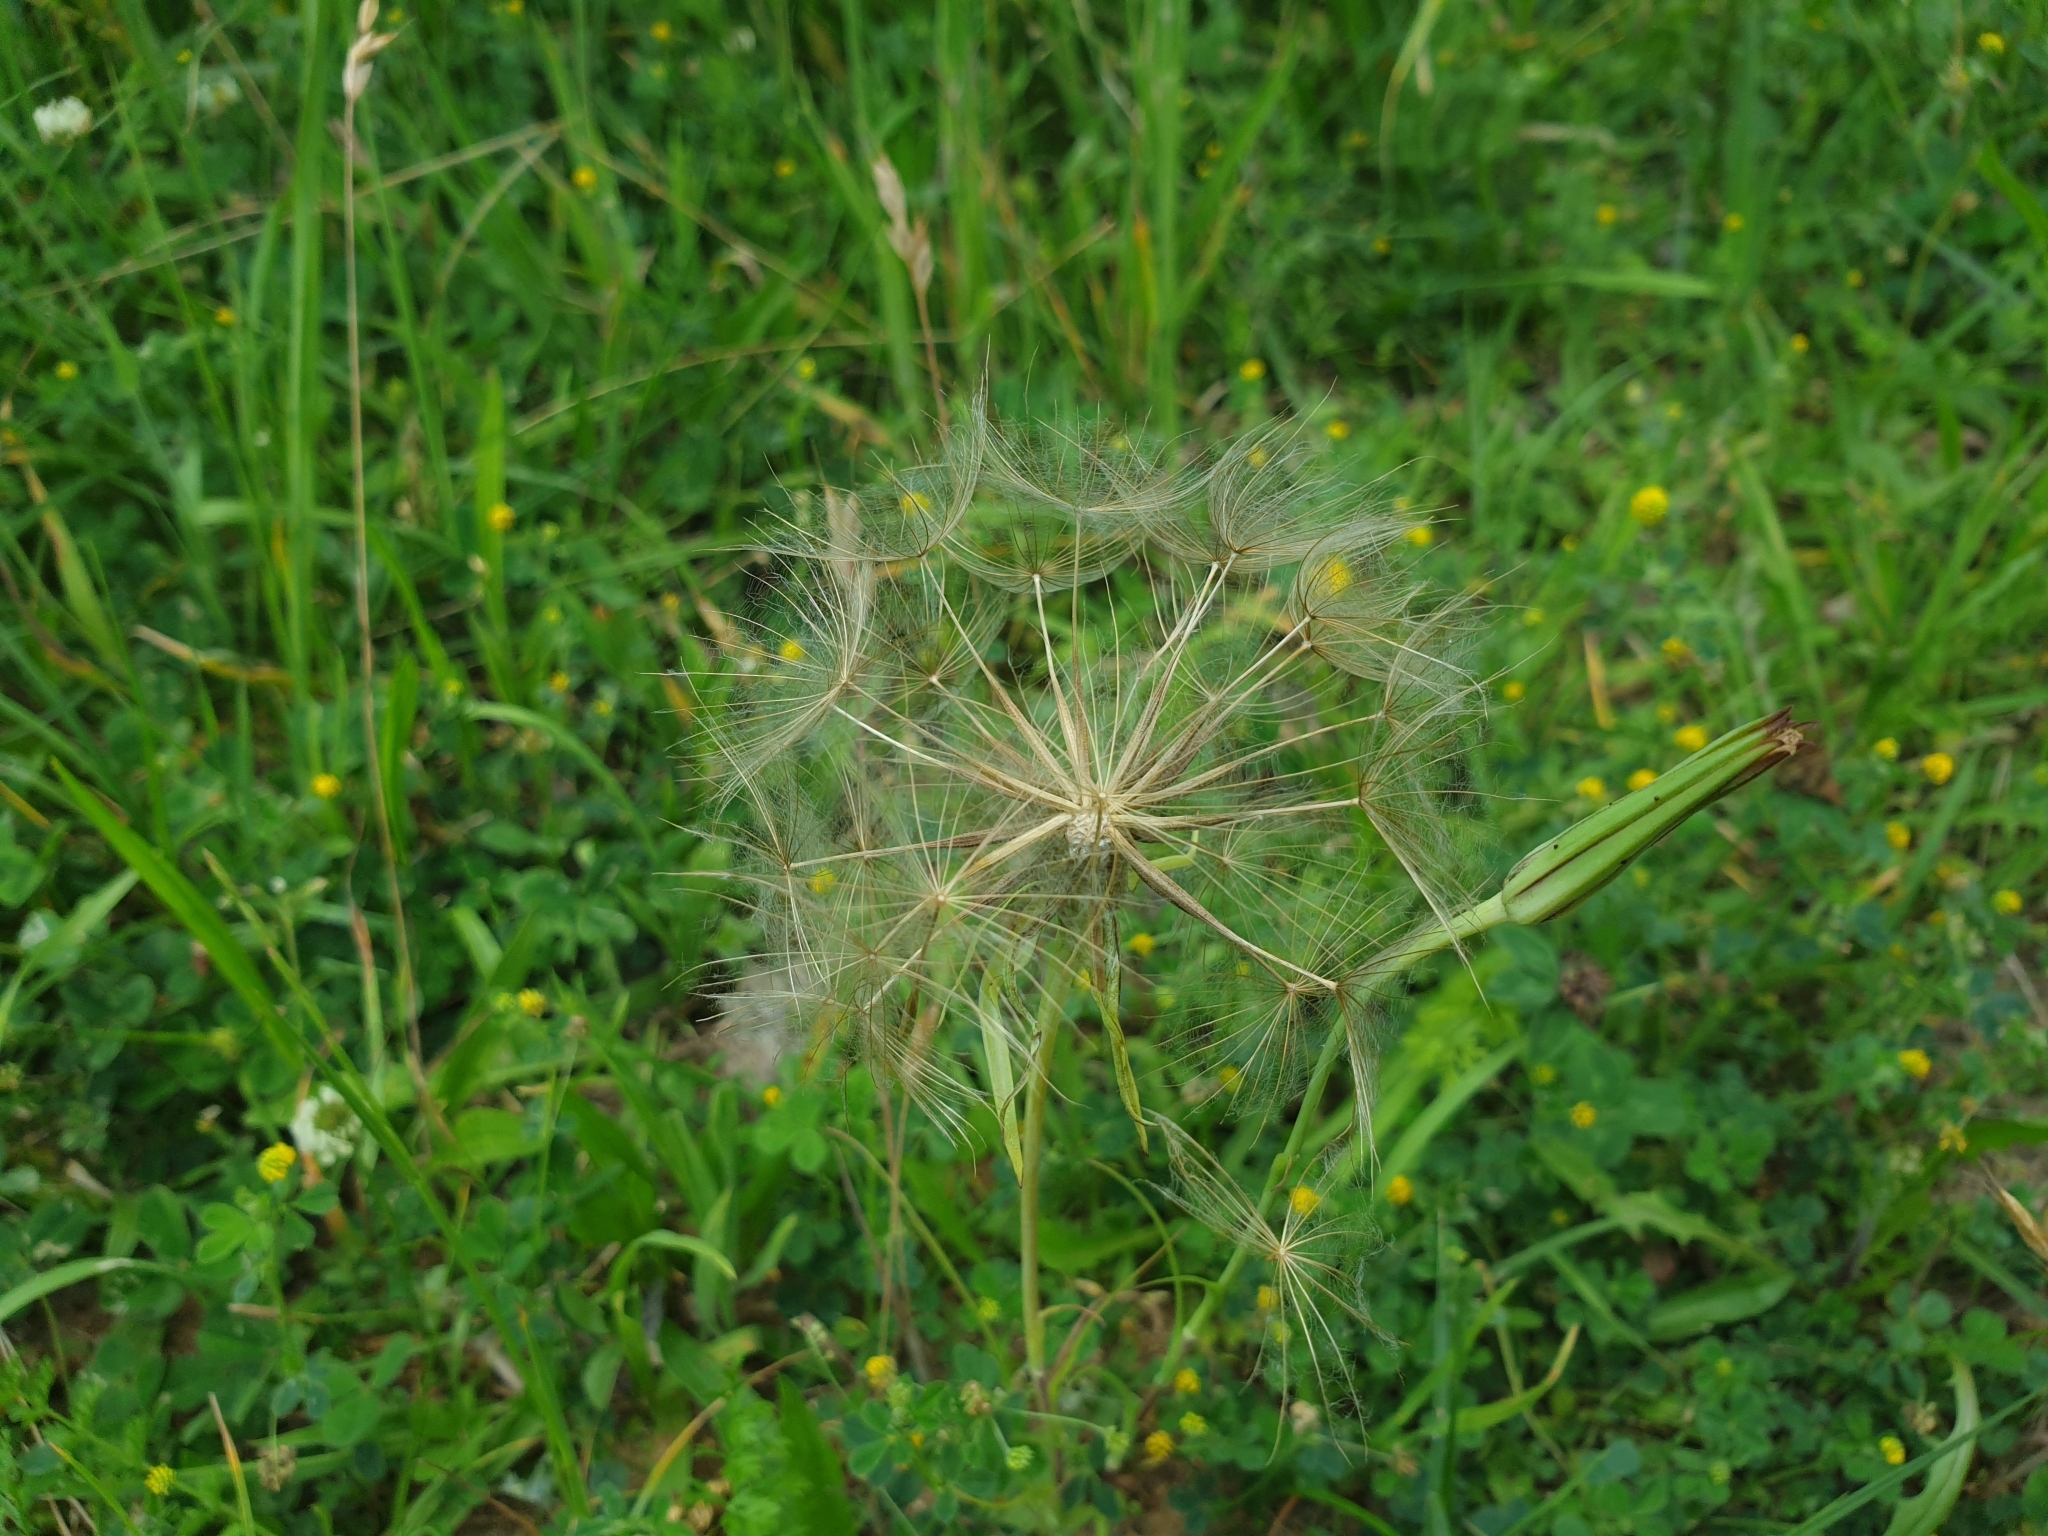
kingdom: Plantae
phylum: Tracheophyta
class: Magnoliopsida
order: Asterales
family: Asteraceae
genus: Tragopogon
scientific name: Tragopogon pratensis
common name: Goat's-beard
